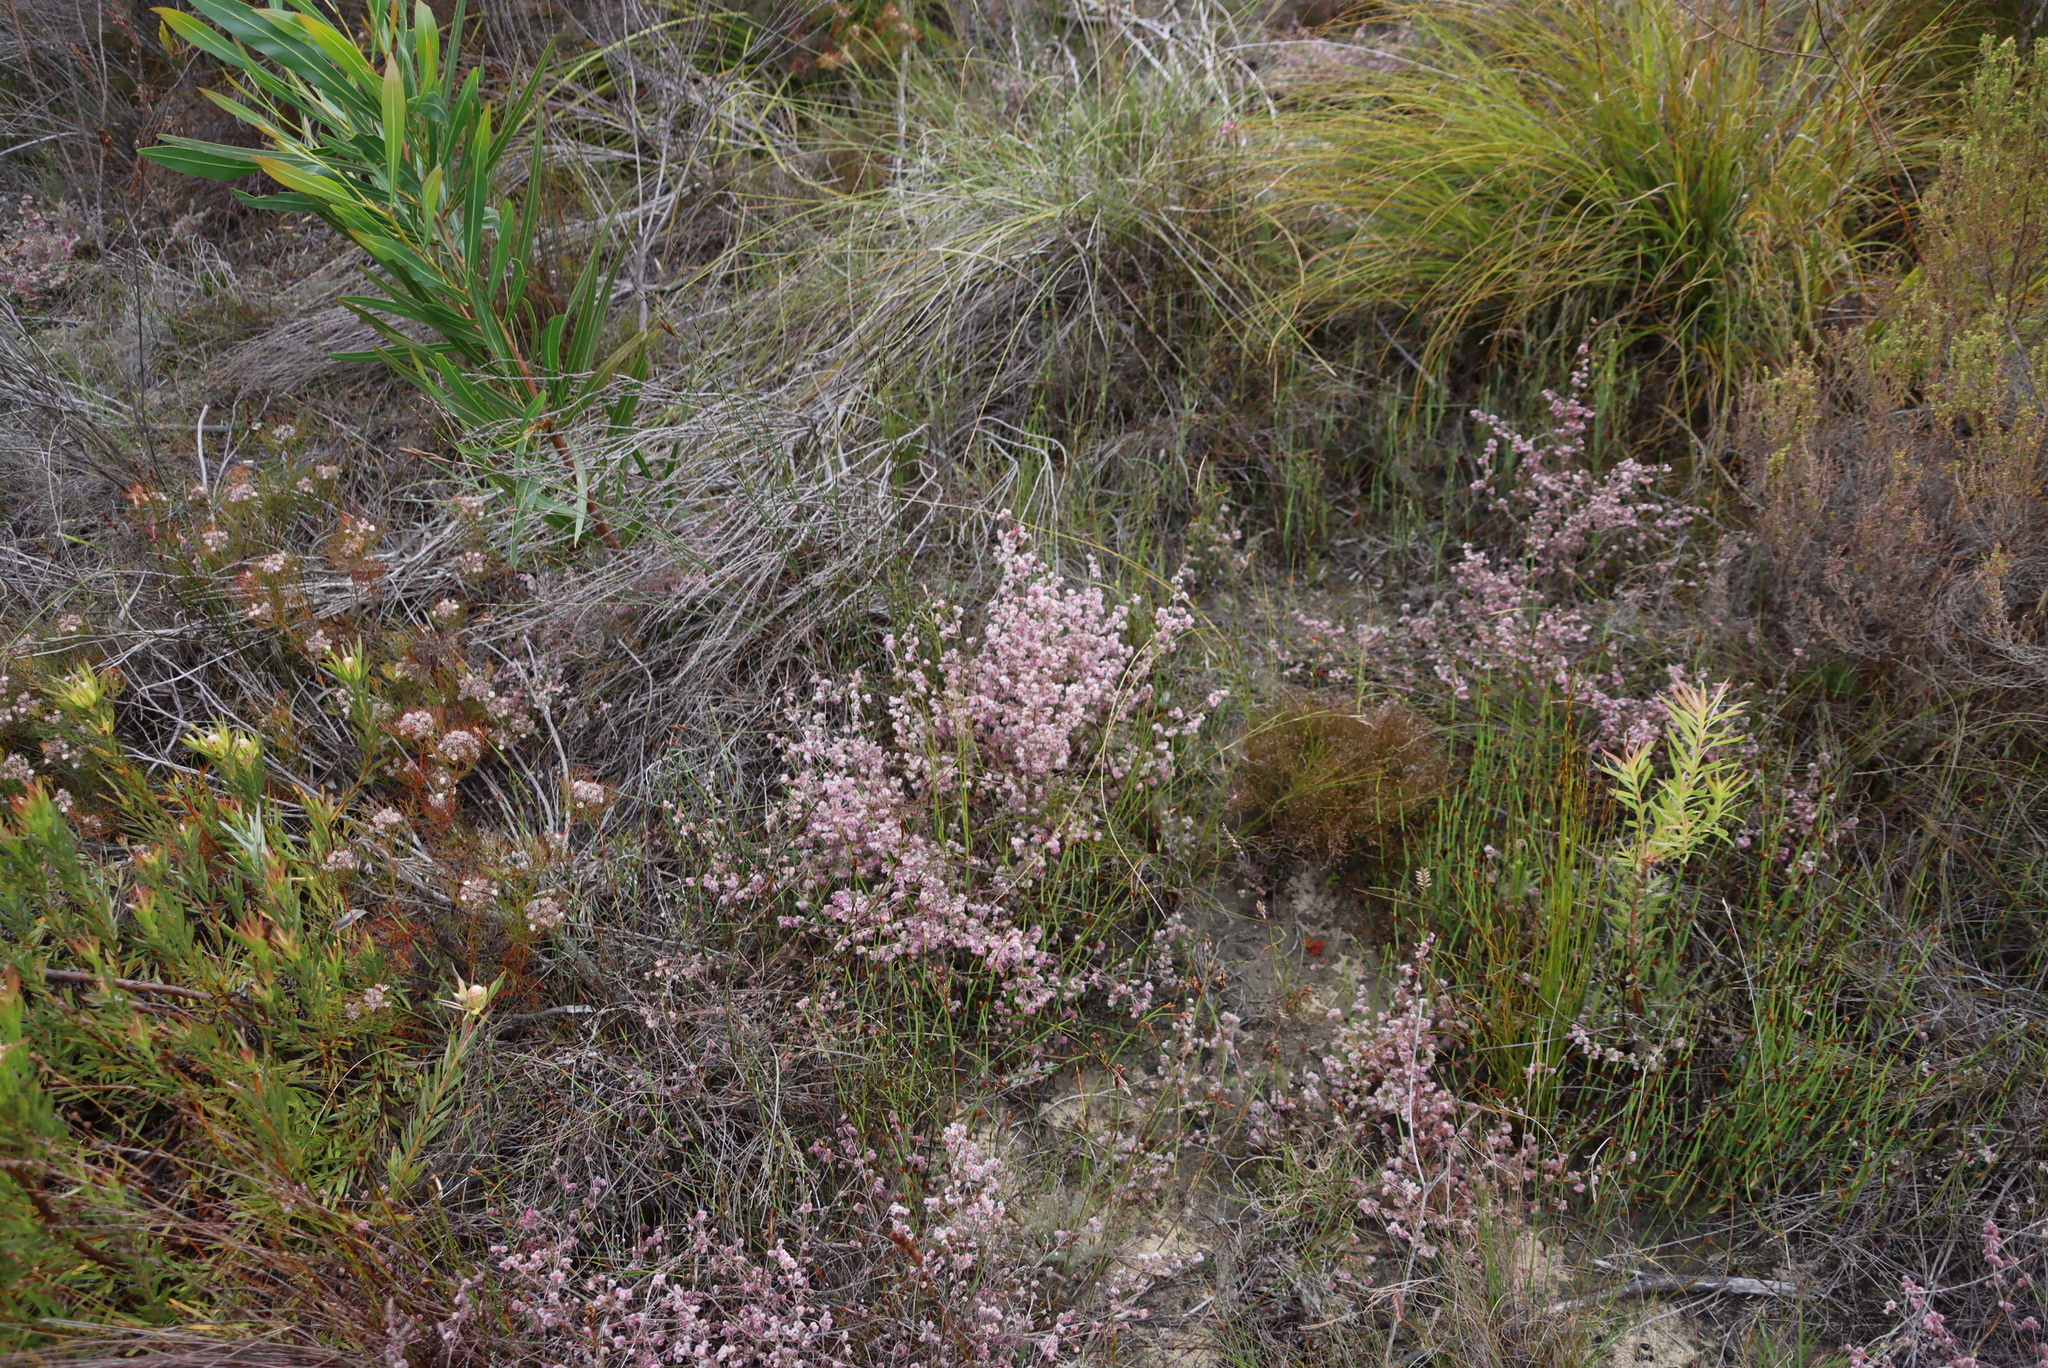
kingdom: Plantae
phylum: Tracheophyta
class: Magnoliopsida
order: Ericales
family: Ericaceae
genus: Erica
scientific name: Erica bruniades
